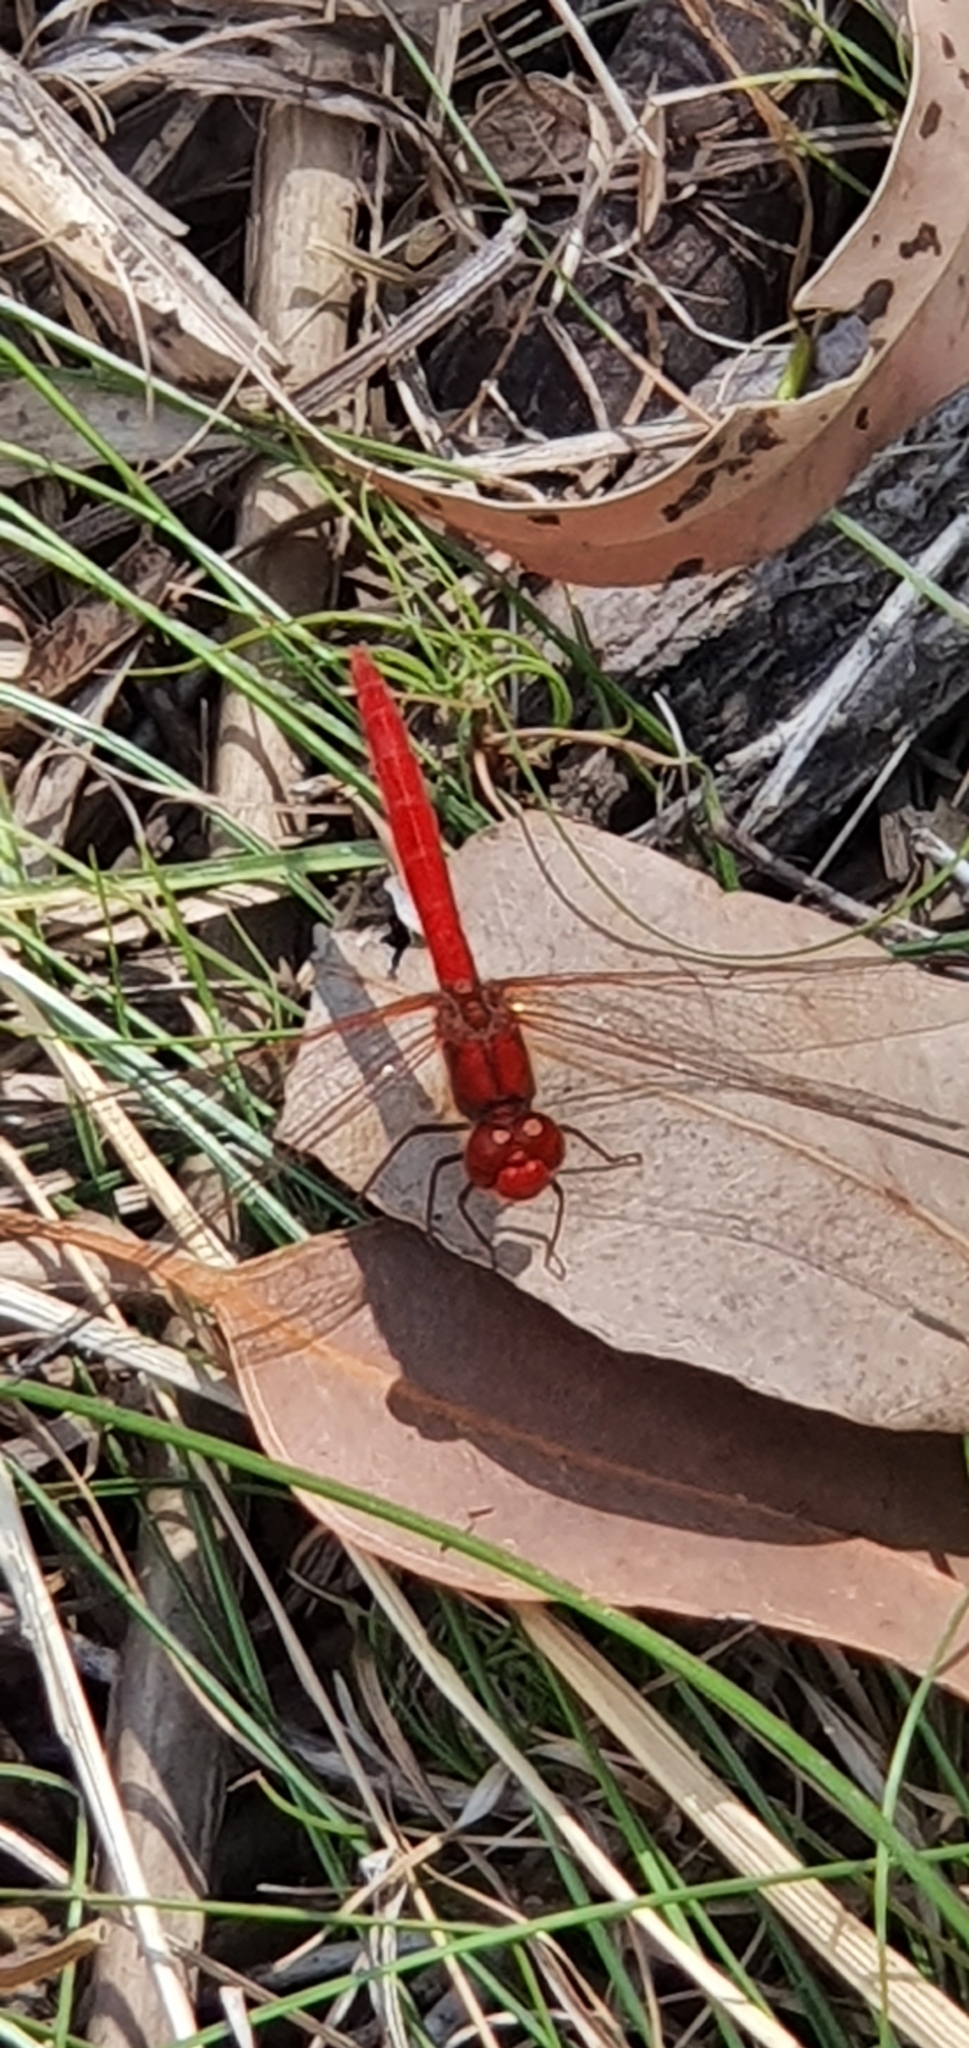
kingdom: Animalia
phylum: Arthropoda
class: Insecta
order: Odonata
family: Libellulidae
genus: Diplacodes
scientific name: Diplacodes haematodes
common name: Scarlet percher
